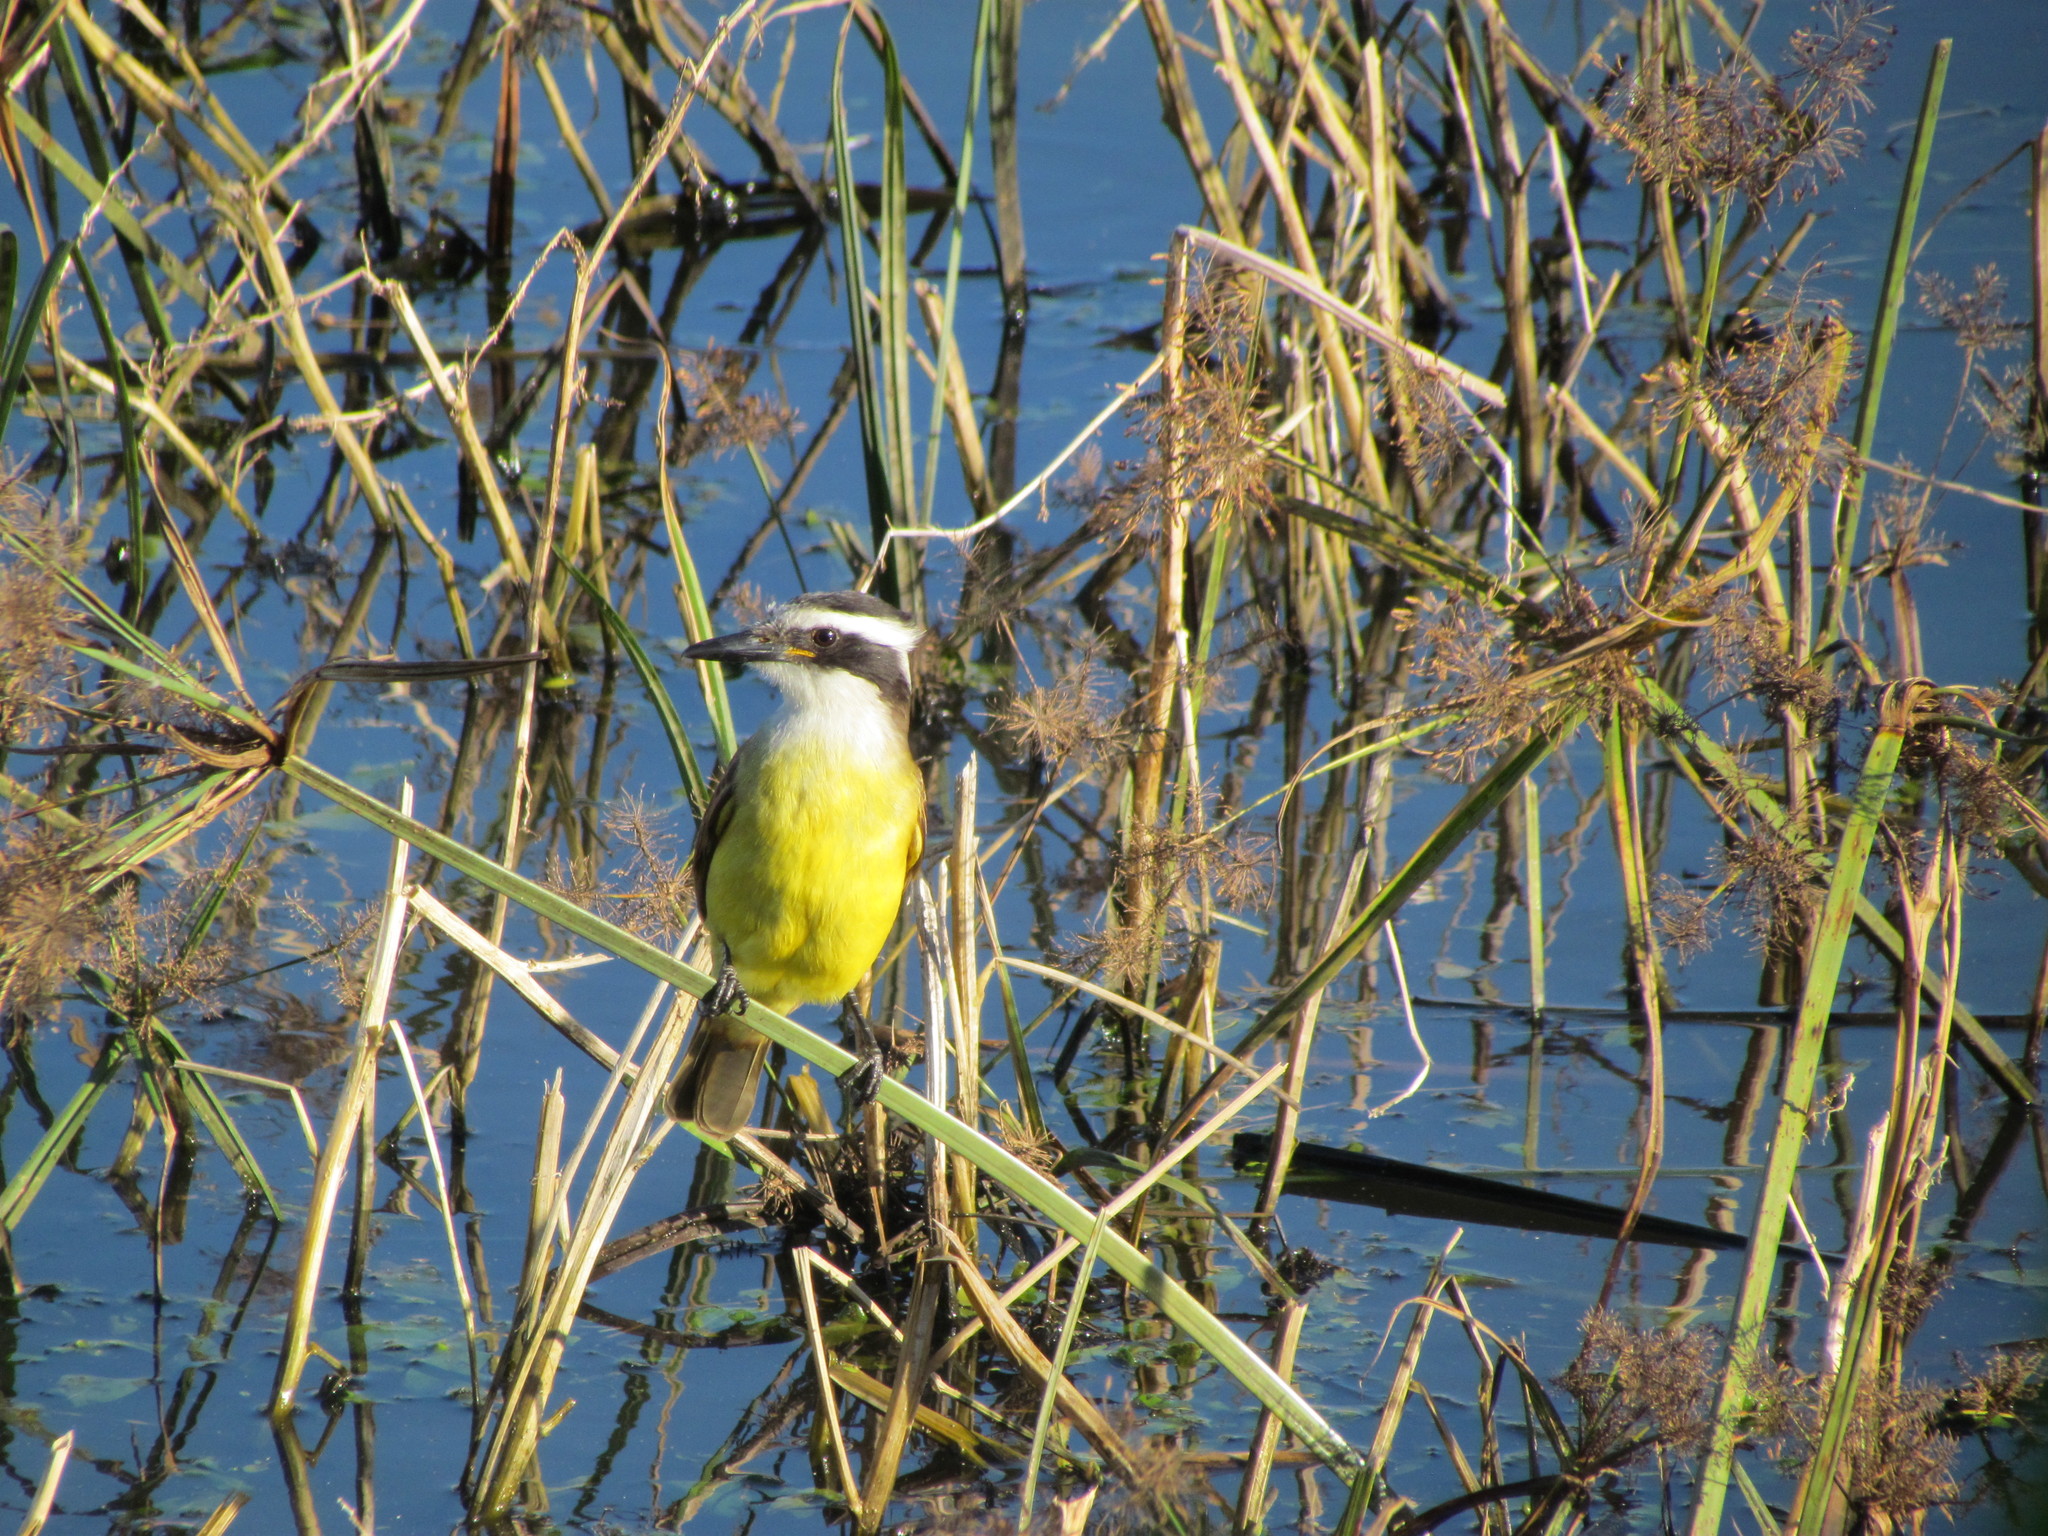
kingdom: Animalia
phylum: Chordata
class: Aves
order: Passeriformes
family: Tyrannidae
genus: Pitangus
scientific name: Pitangus sulphuratus
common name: Great kiskadee
